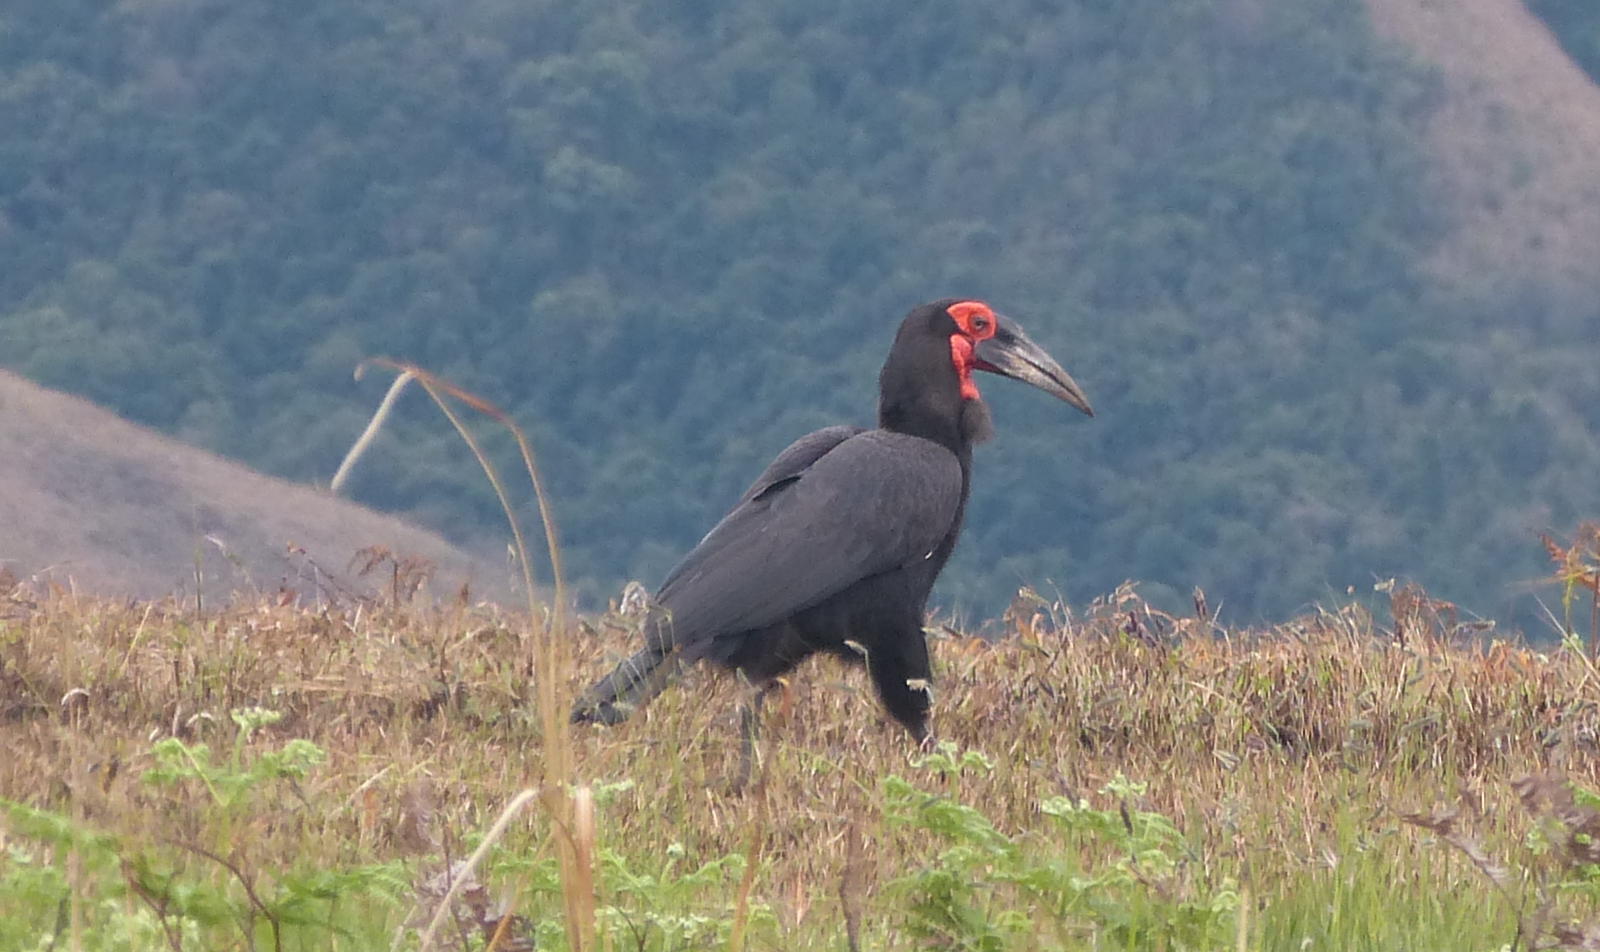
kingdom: Animalia
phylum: Chordata
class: Aves
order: Bucerotiformes
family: Bucorvidae
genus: Bucorvus
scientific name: Bucorvus leadbeateri
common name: Southern ground-hornbill
